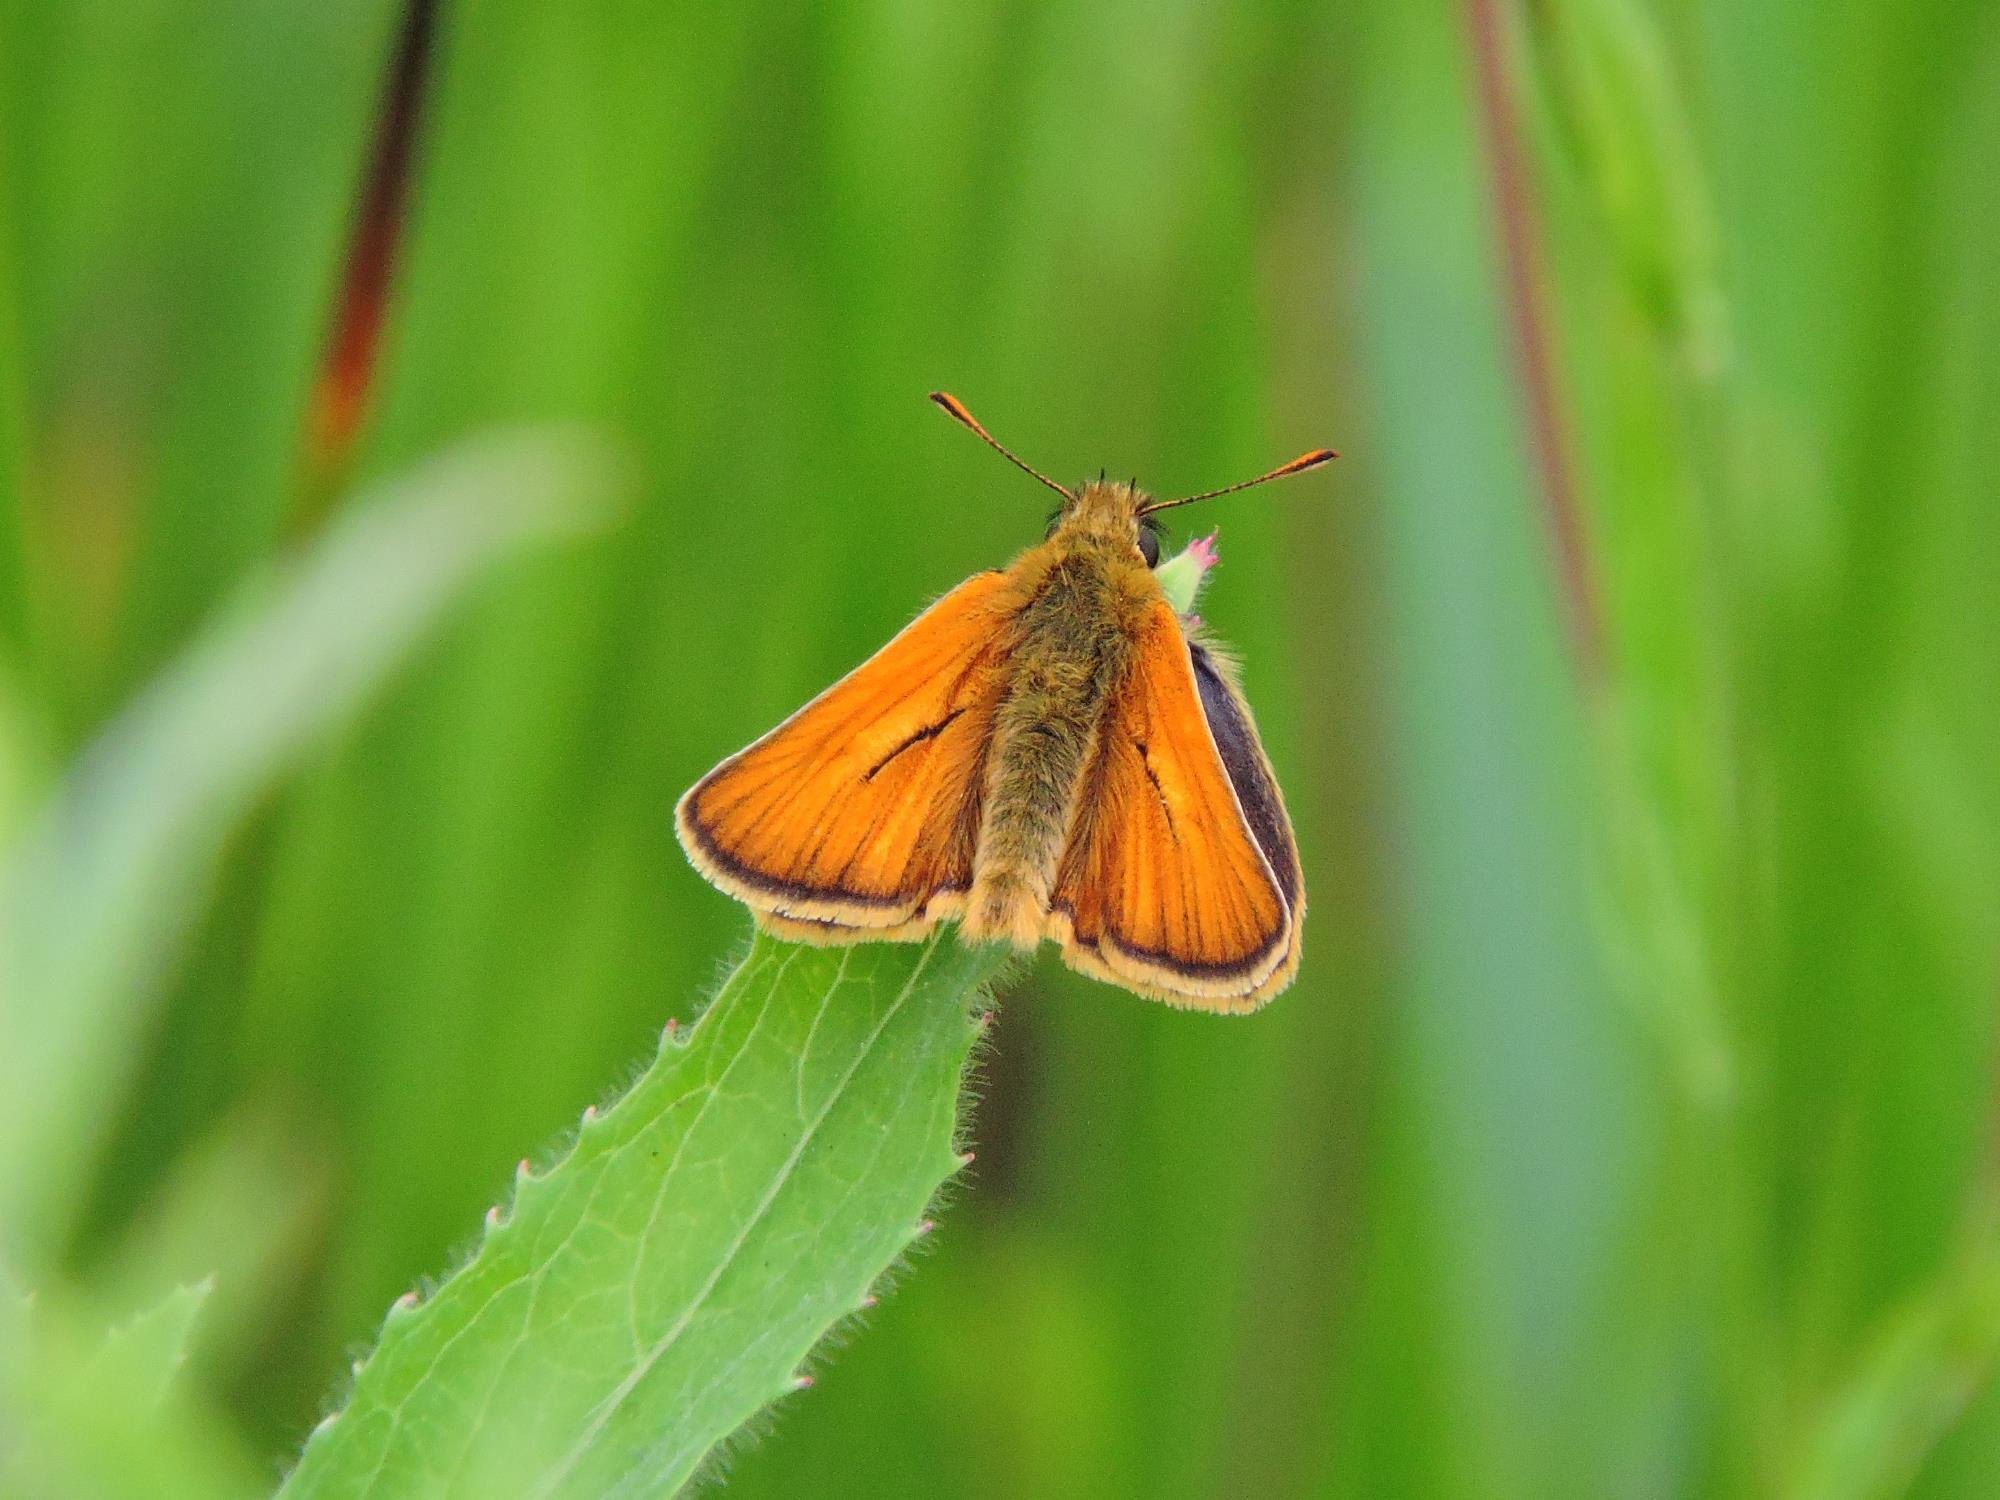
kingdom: Animalia
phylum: Arthropoda
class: Insecta
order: Lepidoptera
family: Hesperiidae
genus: Thymelicus
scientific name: Thymelicus sylvestris
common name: Small skipper
